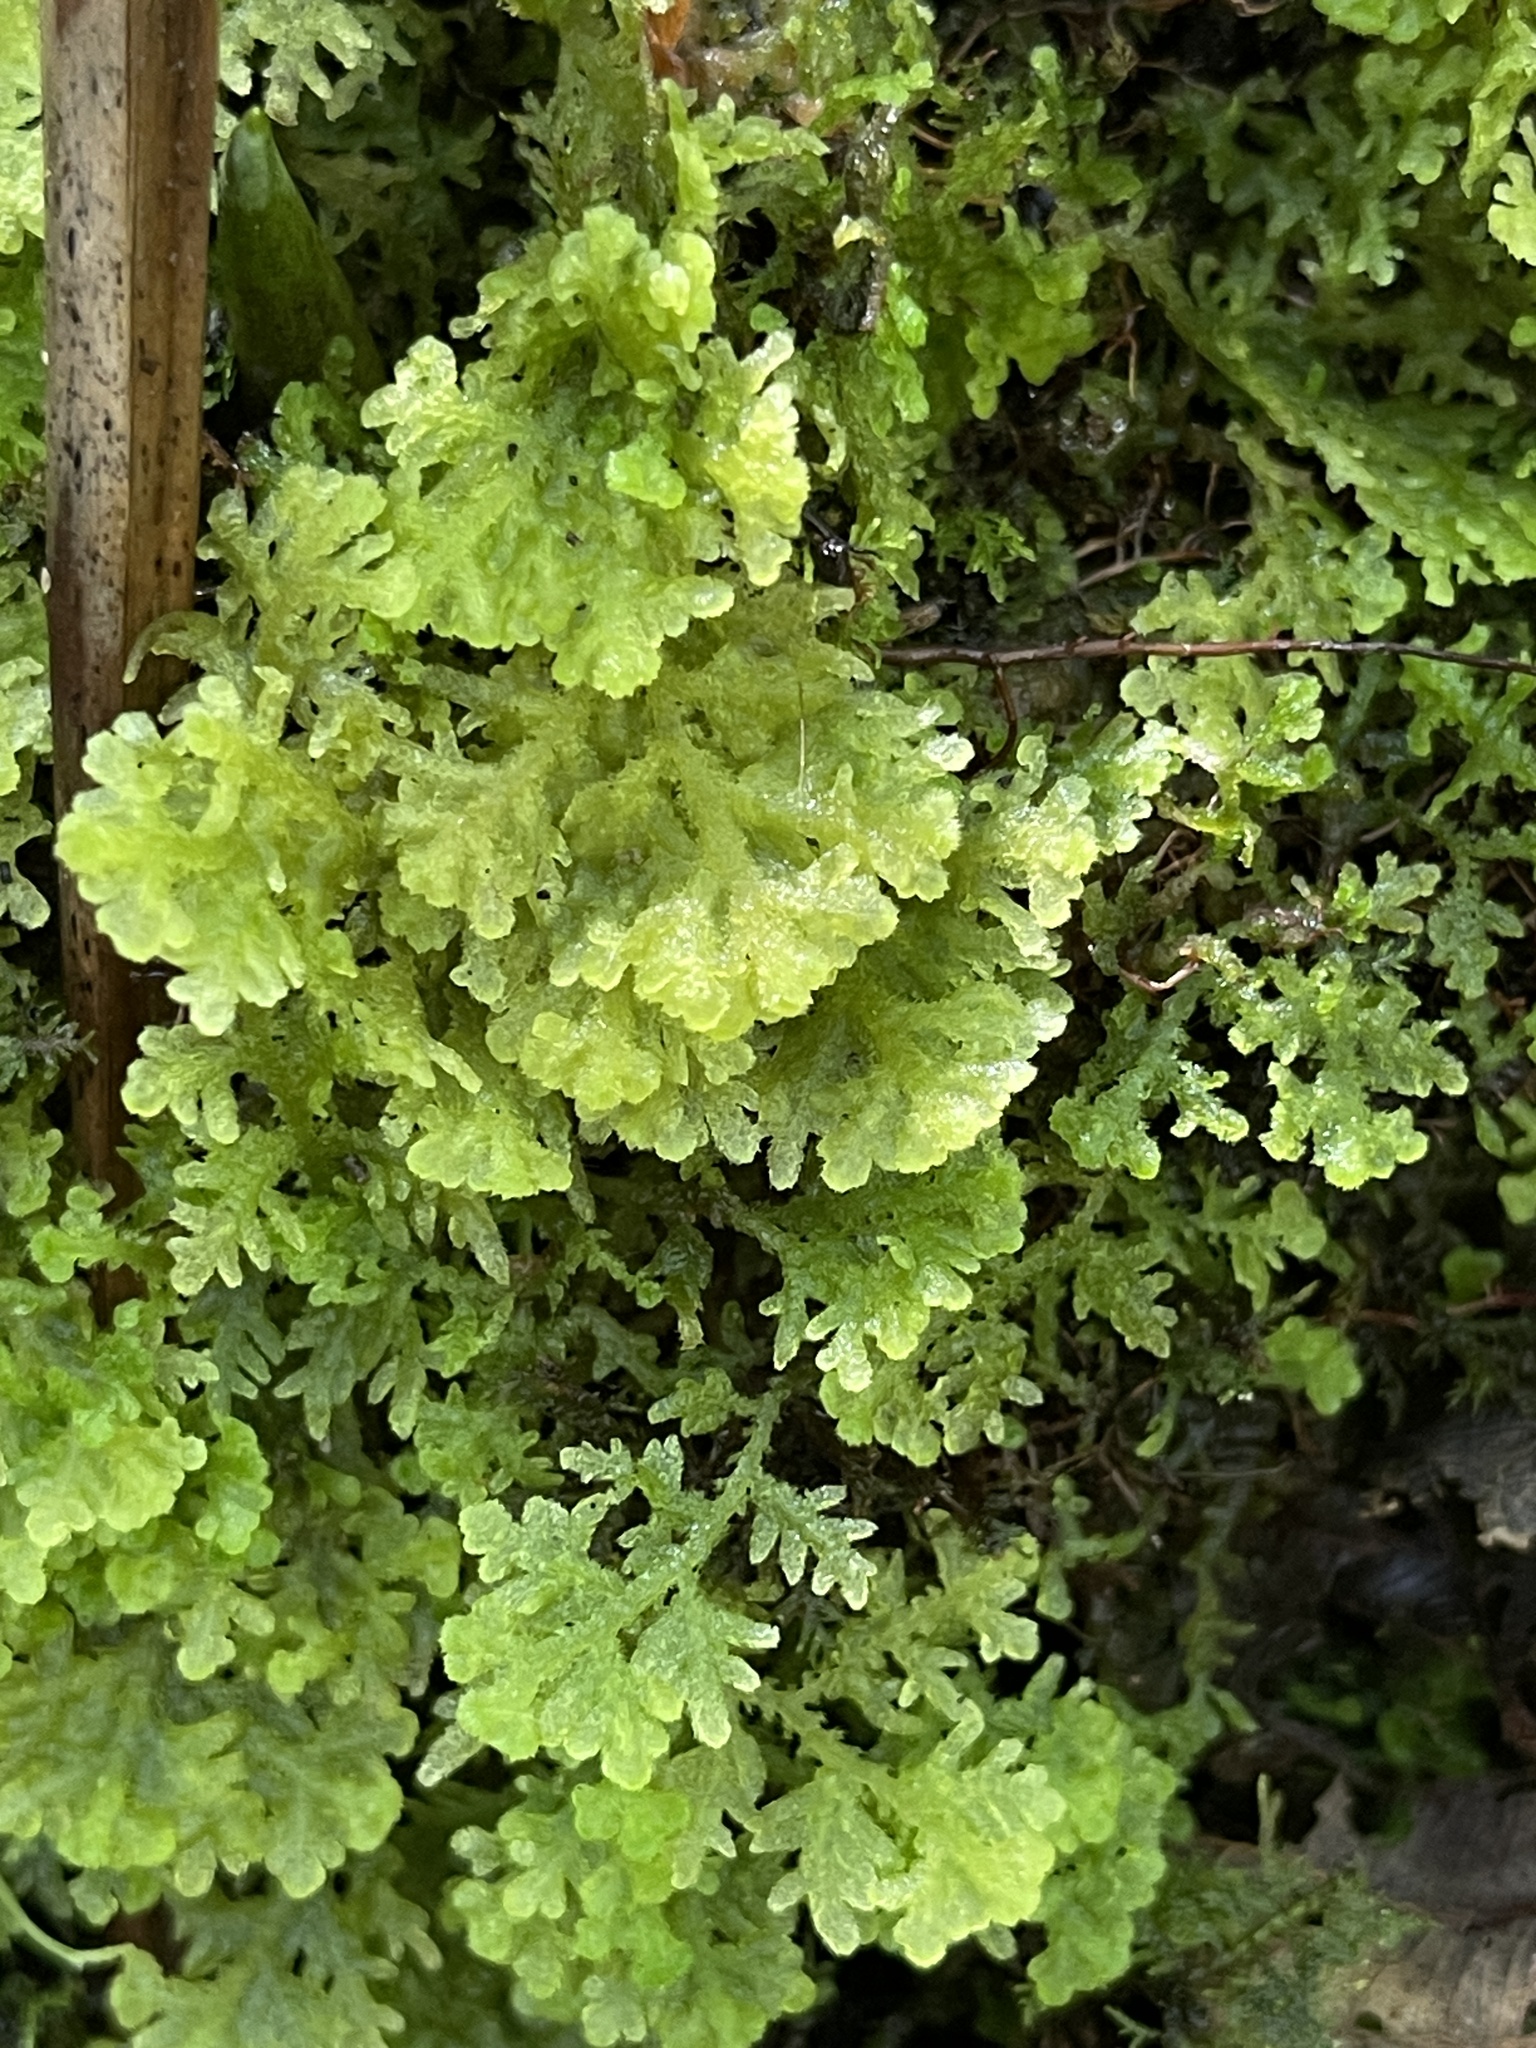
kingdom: Plantae
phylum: Marchantiophyta
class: Jungermanniopsida
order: Jungermanniales
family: Trichocoleaceae
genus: Trichocolea
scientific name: Trichocolea tomentella
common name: Woolly liverwort
